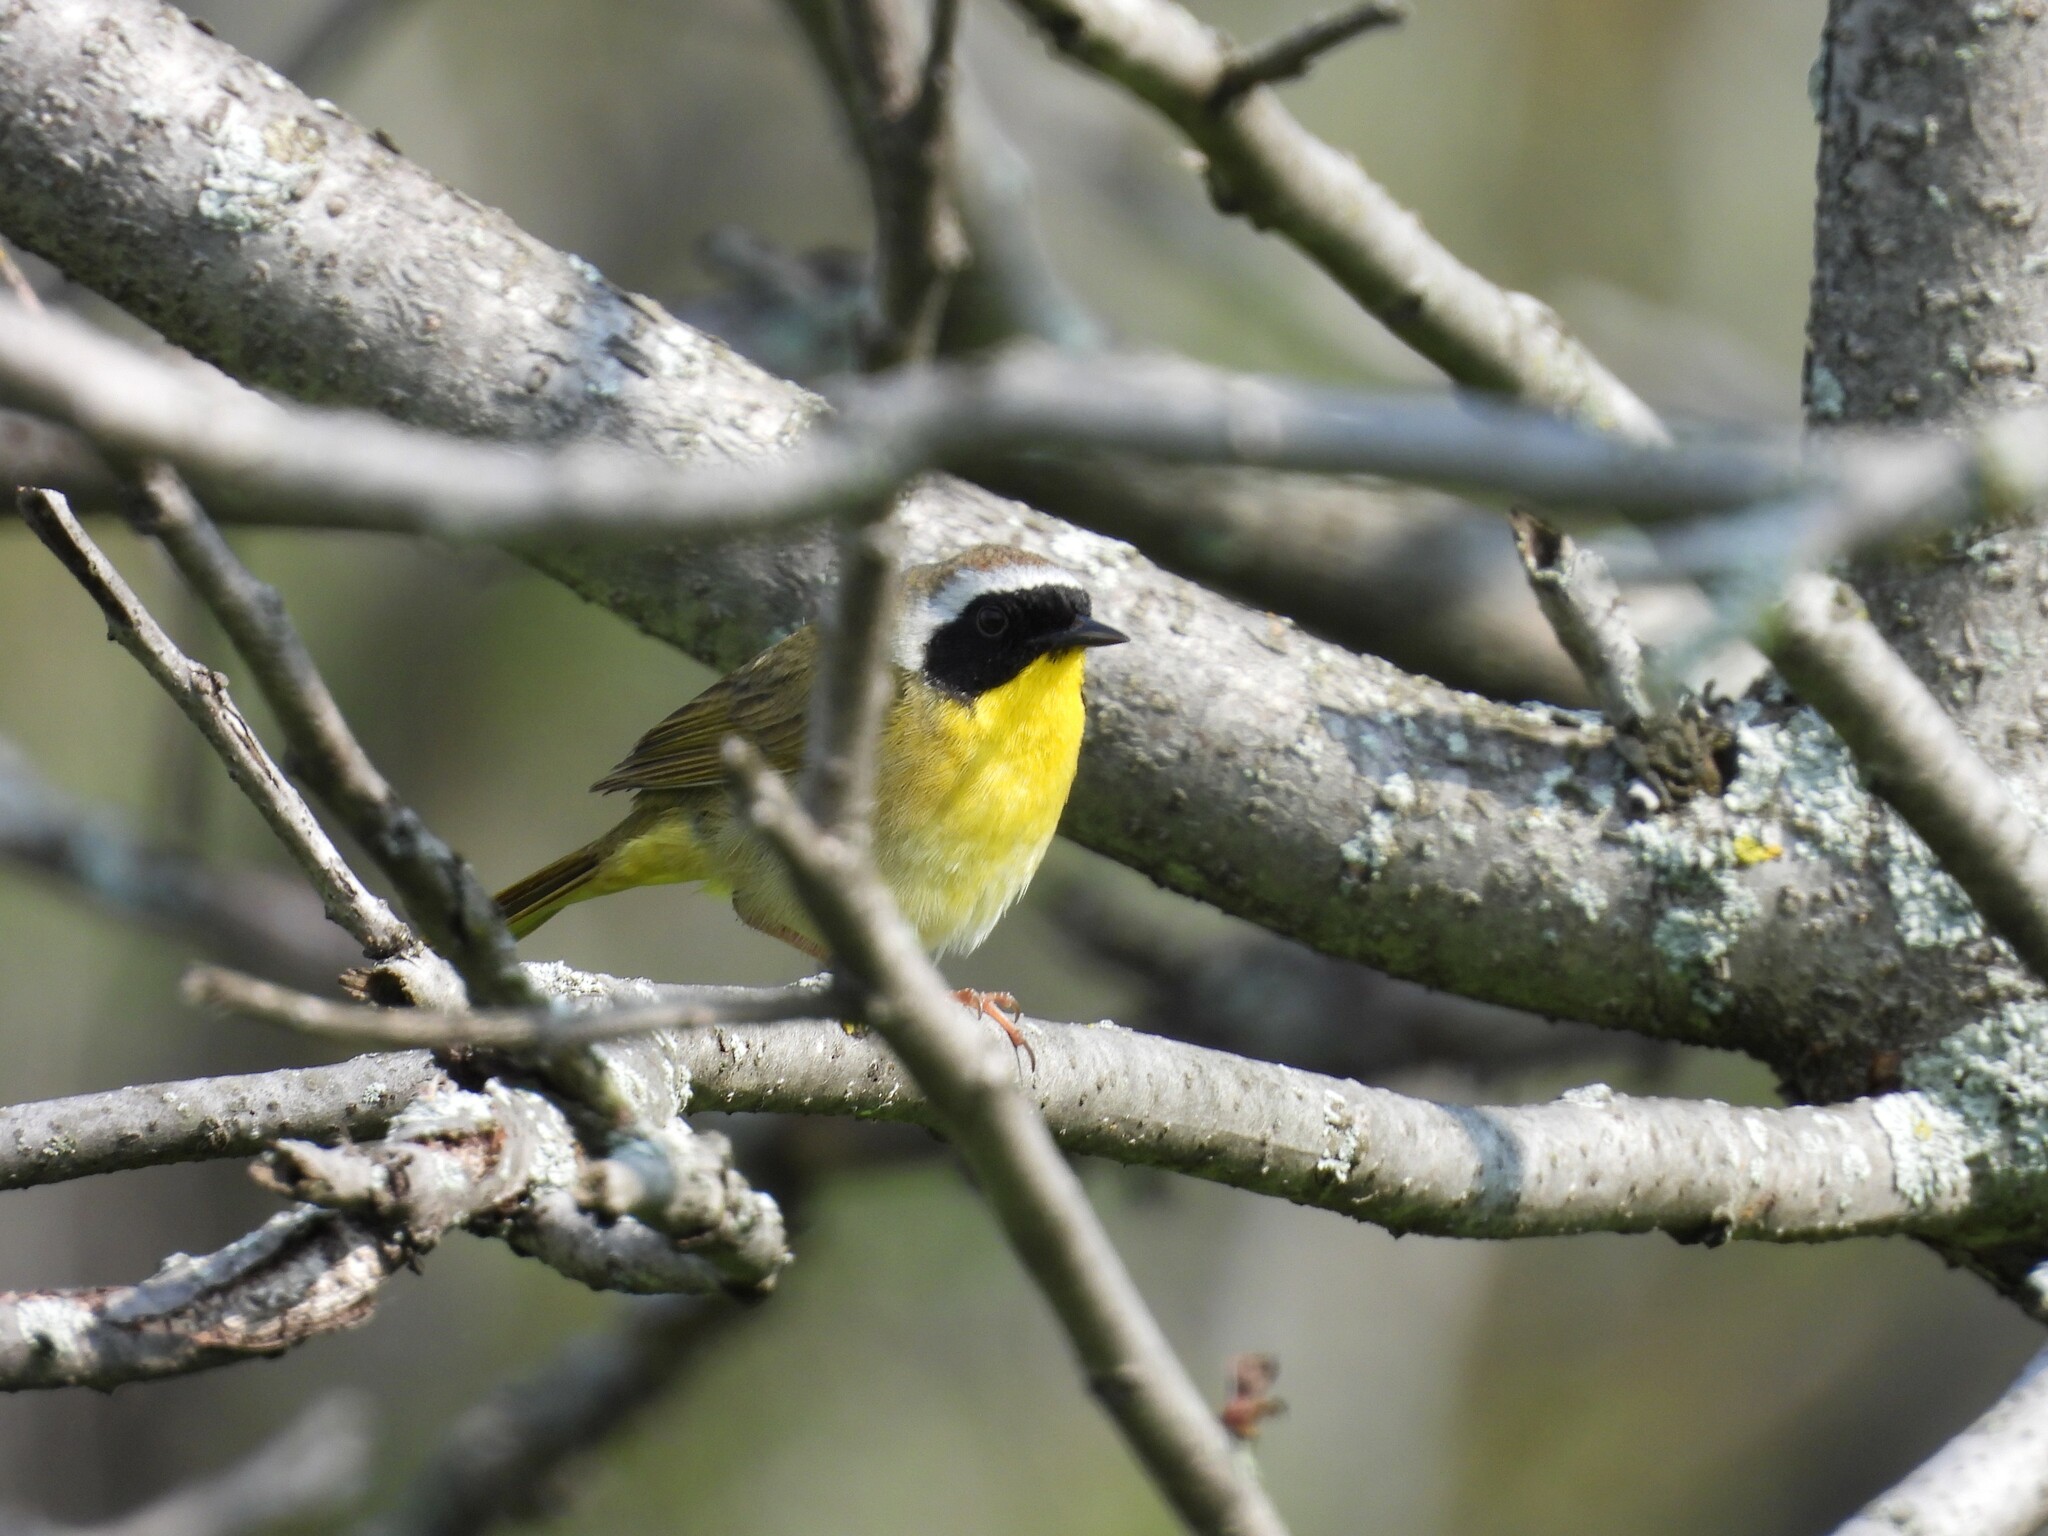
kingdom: Animalia
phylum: Chordata
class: Aves
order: Passeriformes
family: Parulidae
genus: Geothlypis
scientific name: Geothlypis trichas
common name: Common yellowthroat
